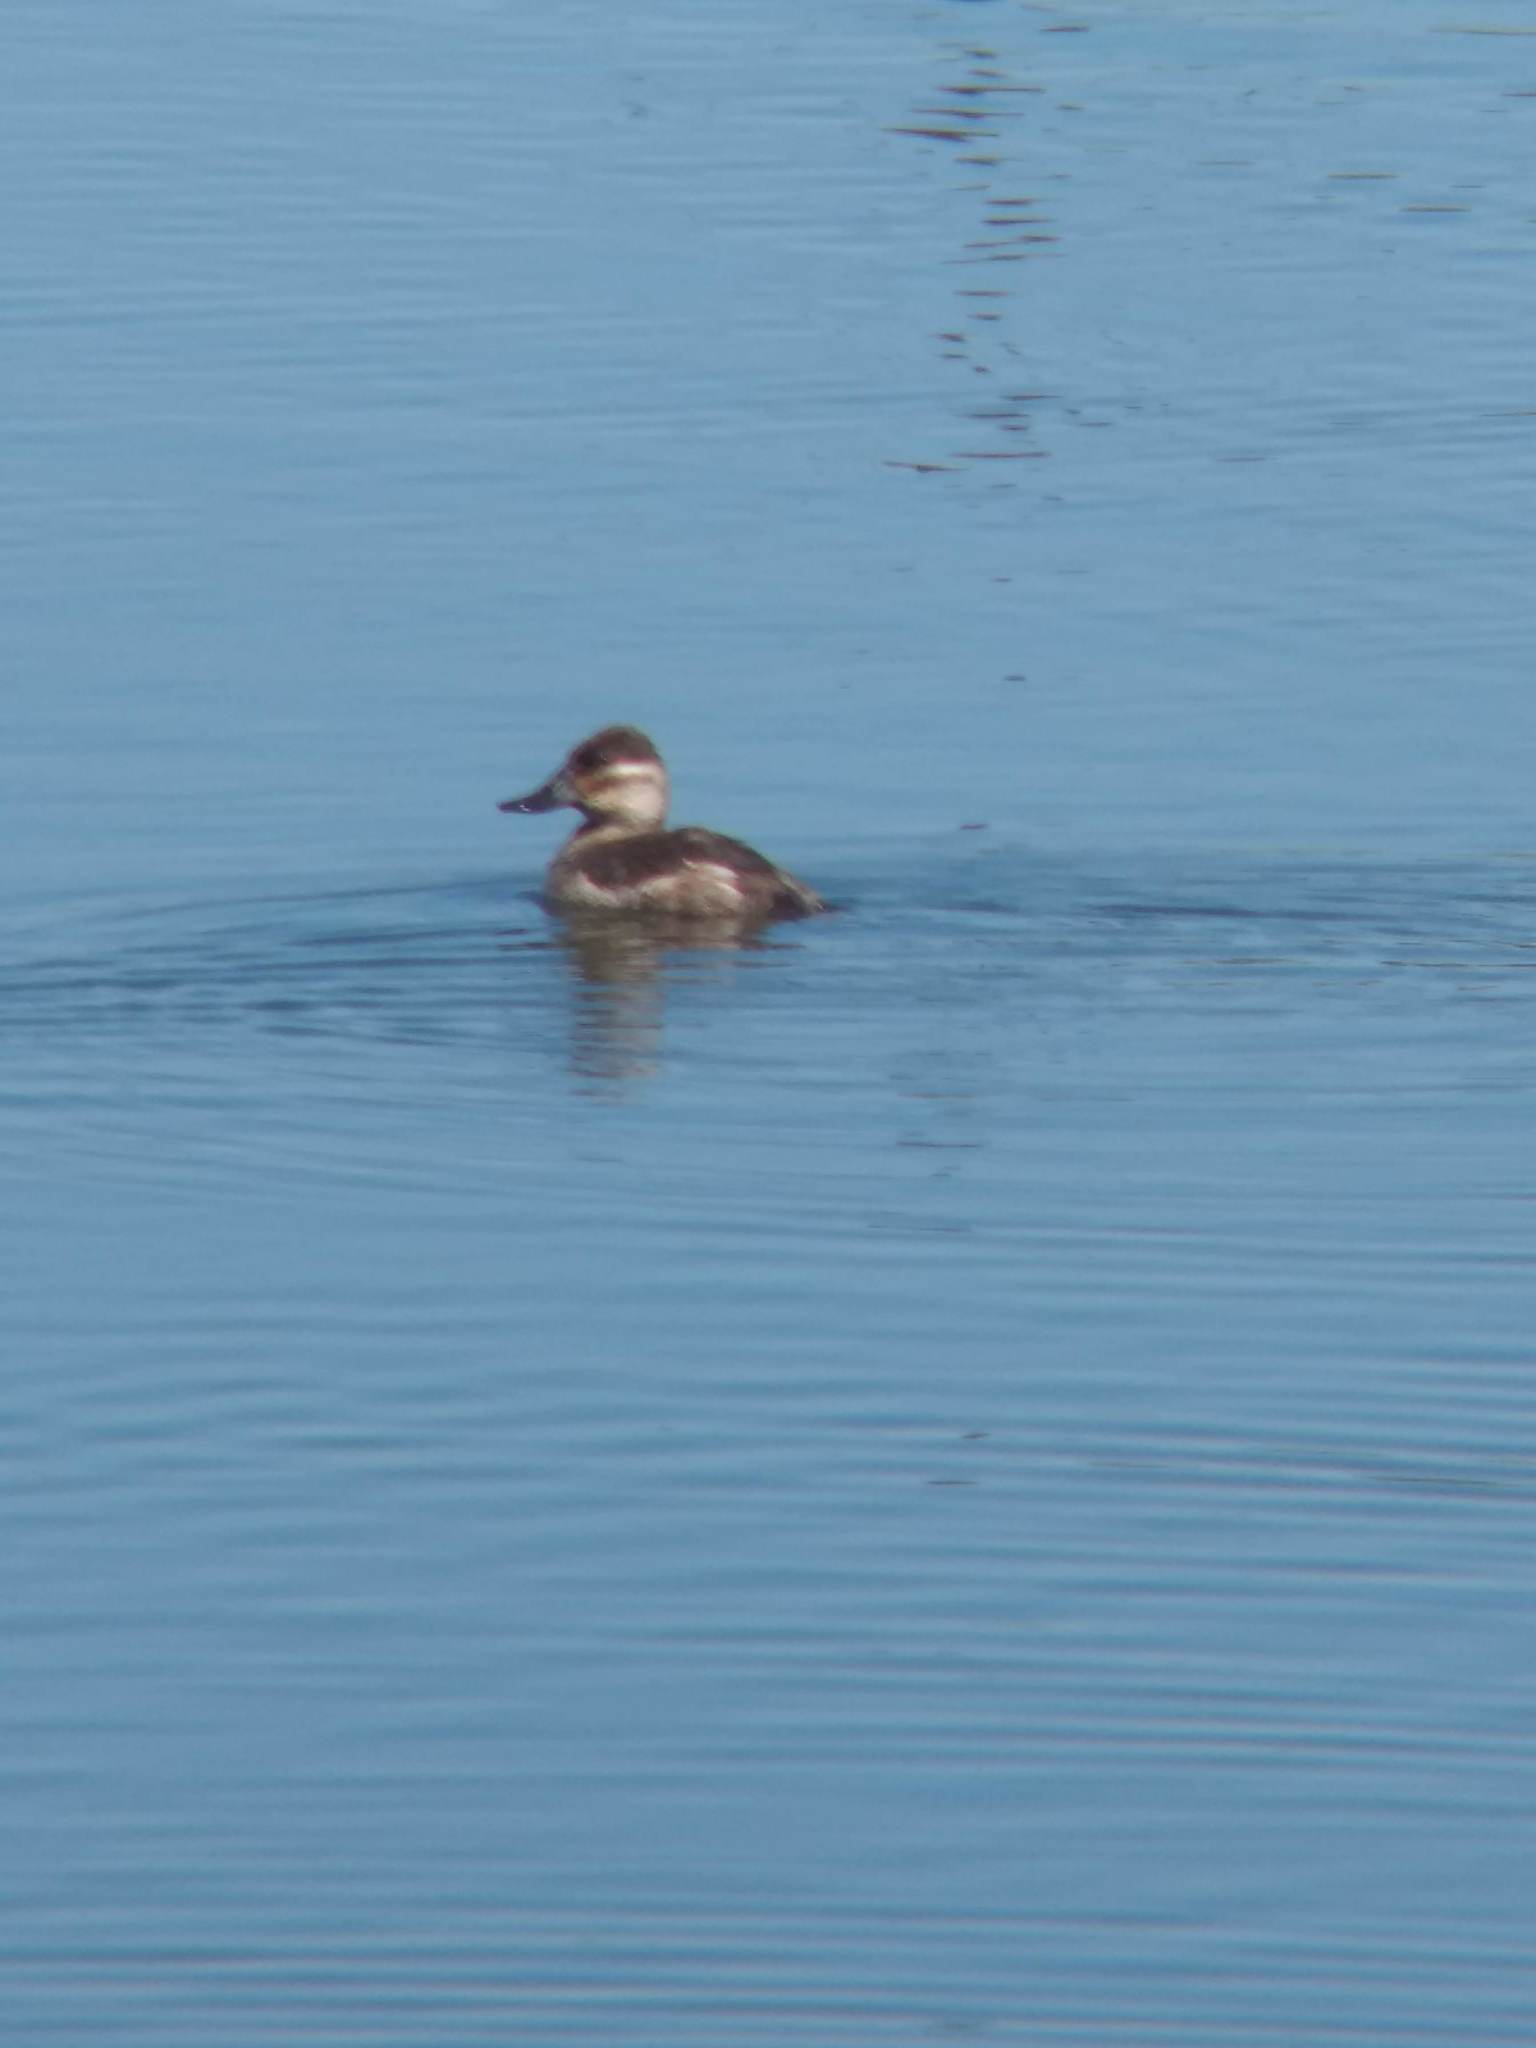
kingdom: Animalia
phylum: Chordata
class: Aves
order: Anseriformes
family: Anatidae
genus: Oxyura
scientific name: Oxyura jamaicensis
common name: Ruddy duck
